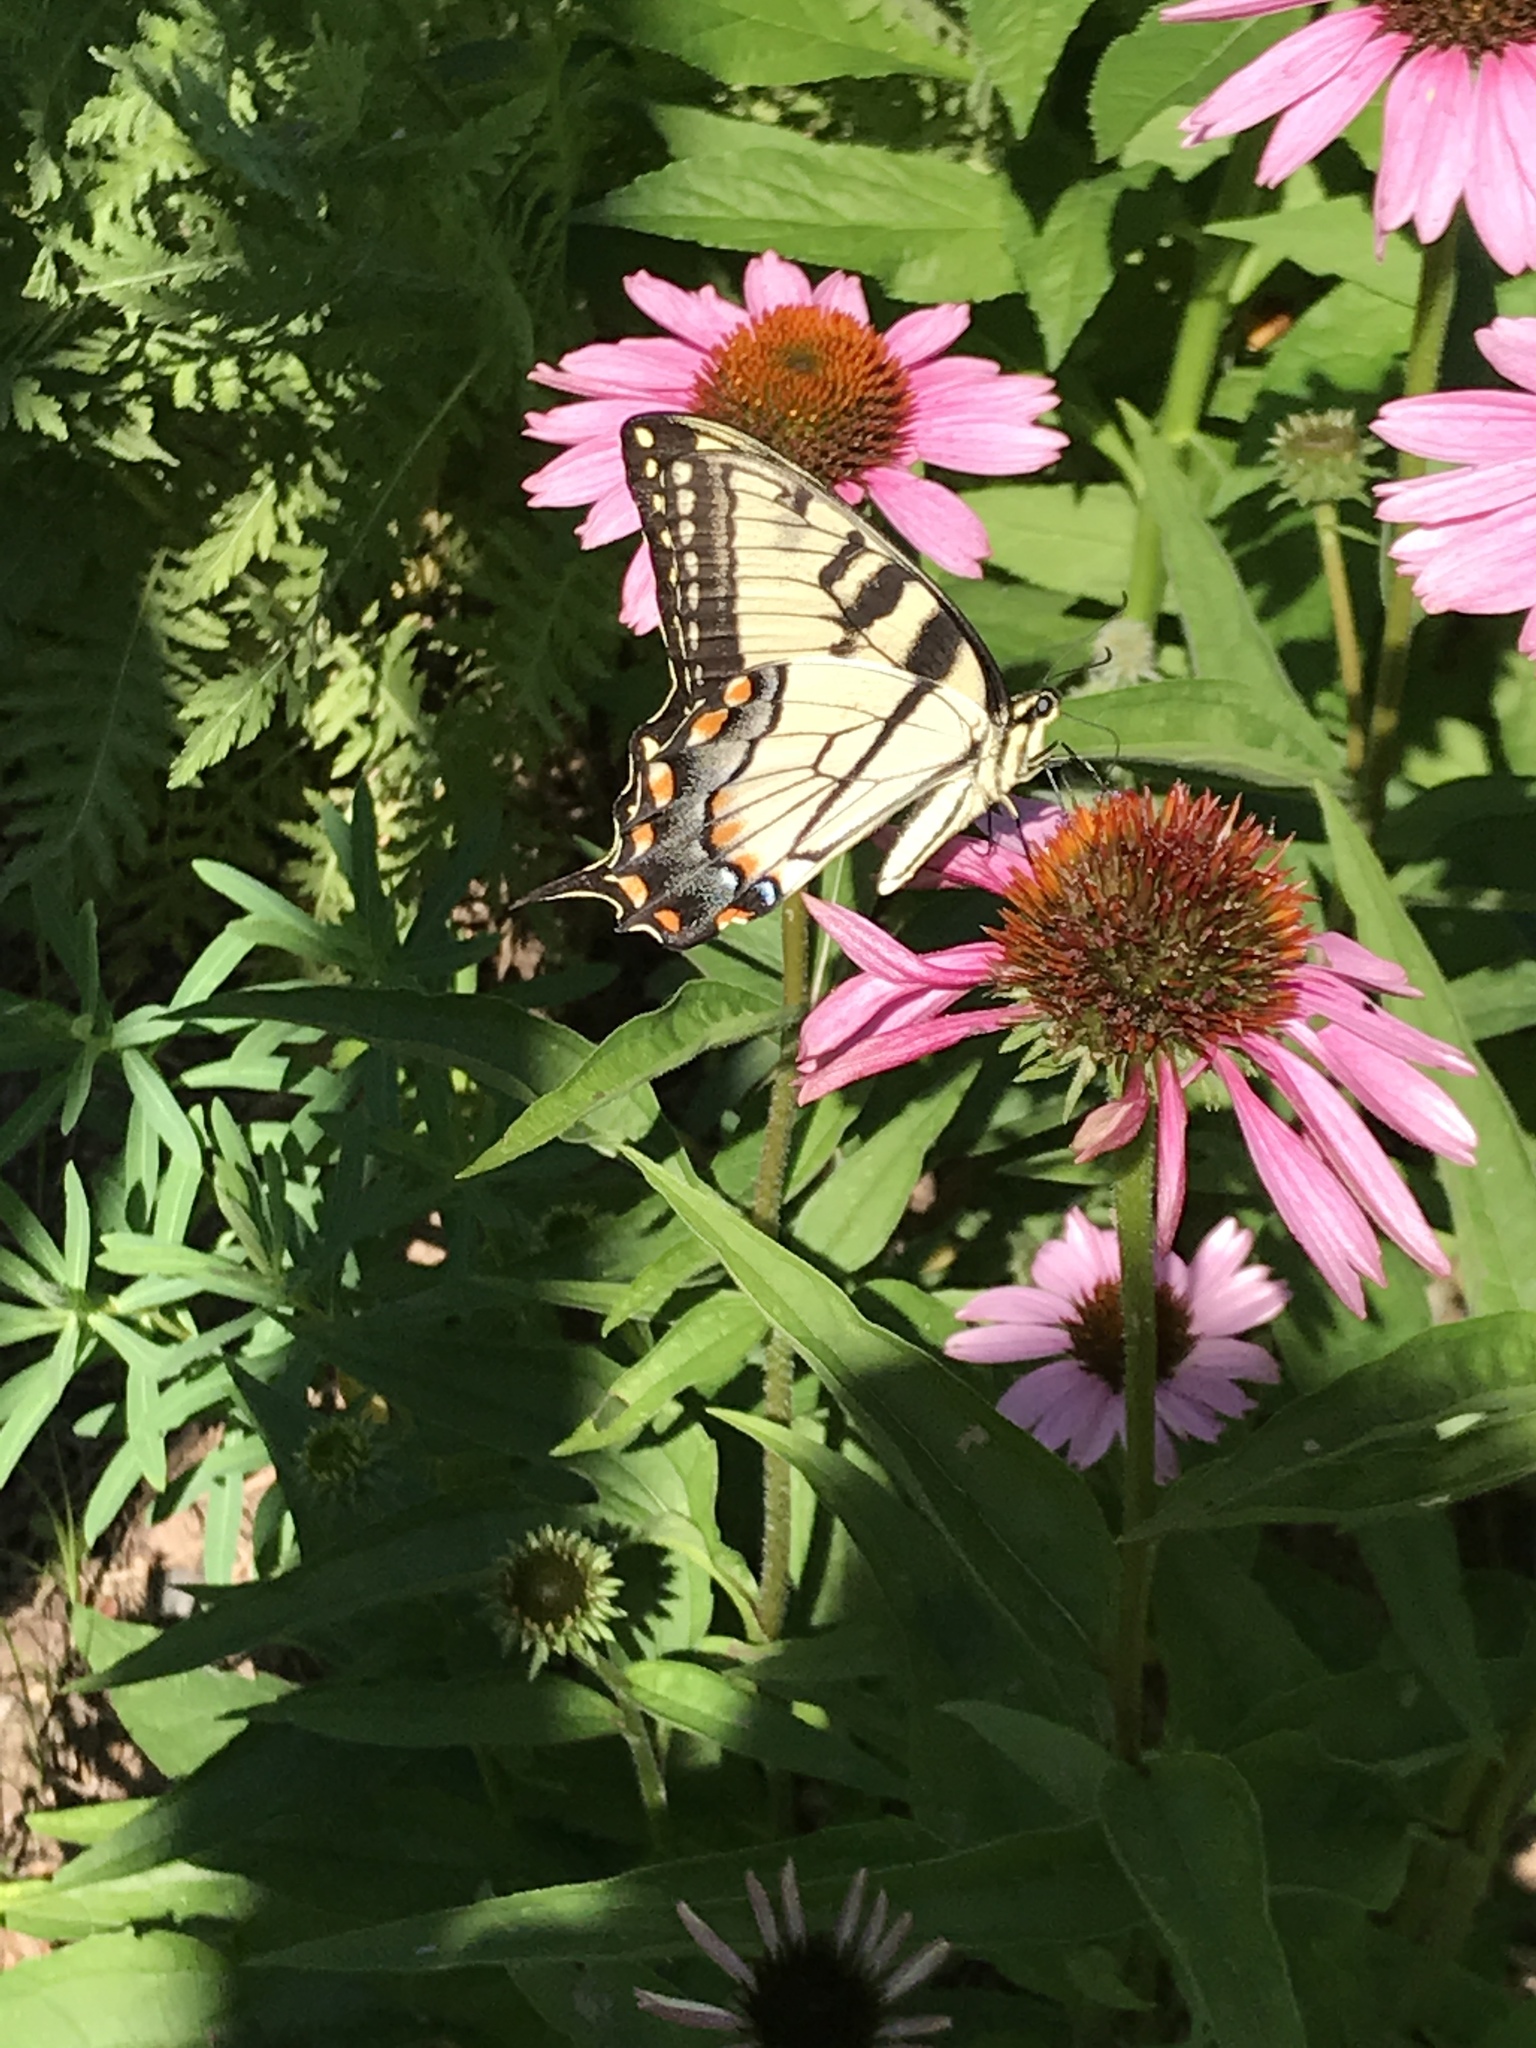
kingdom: Animalia
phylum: Arthropoda
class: Insecta
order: Lepidoptera
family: Papilionidae
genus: Papilio
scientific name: Papilio glaucus
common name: Tiger swallowtail
